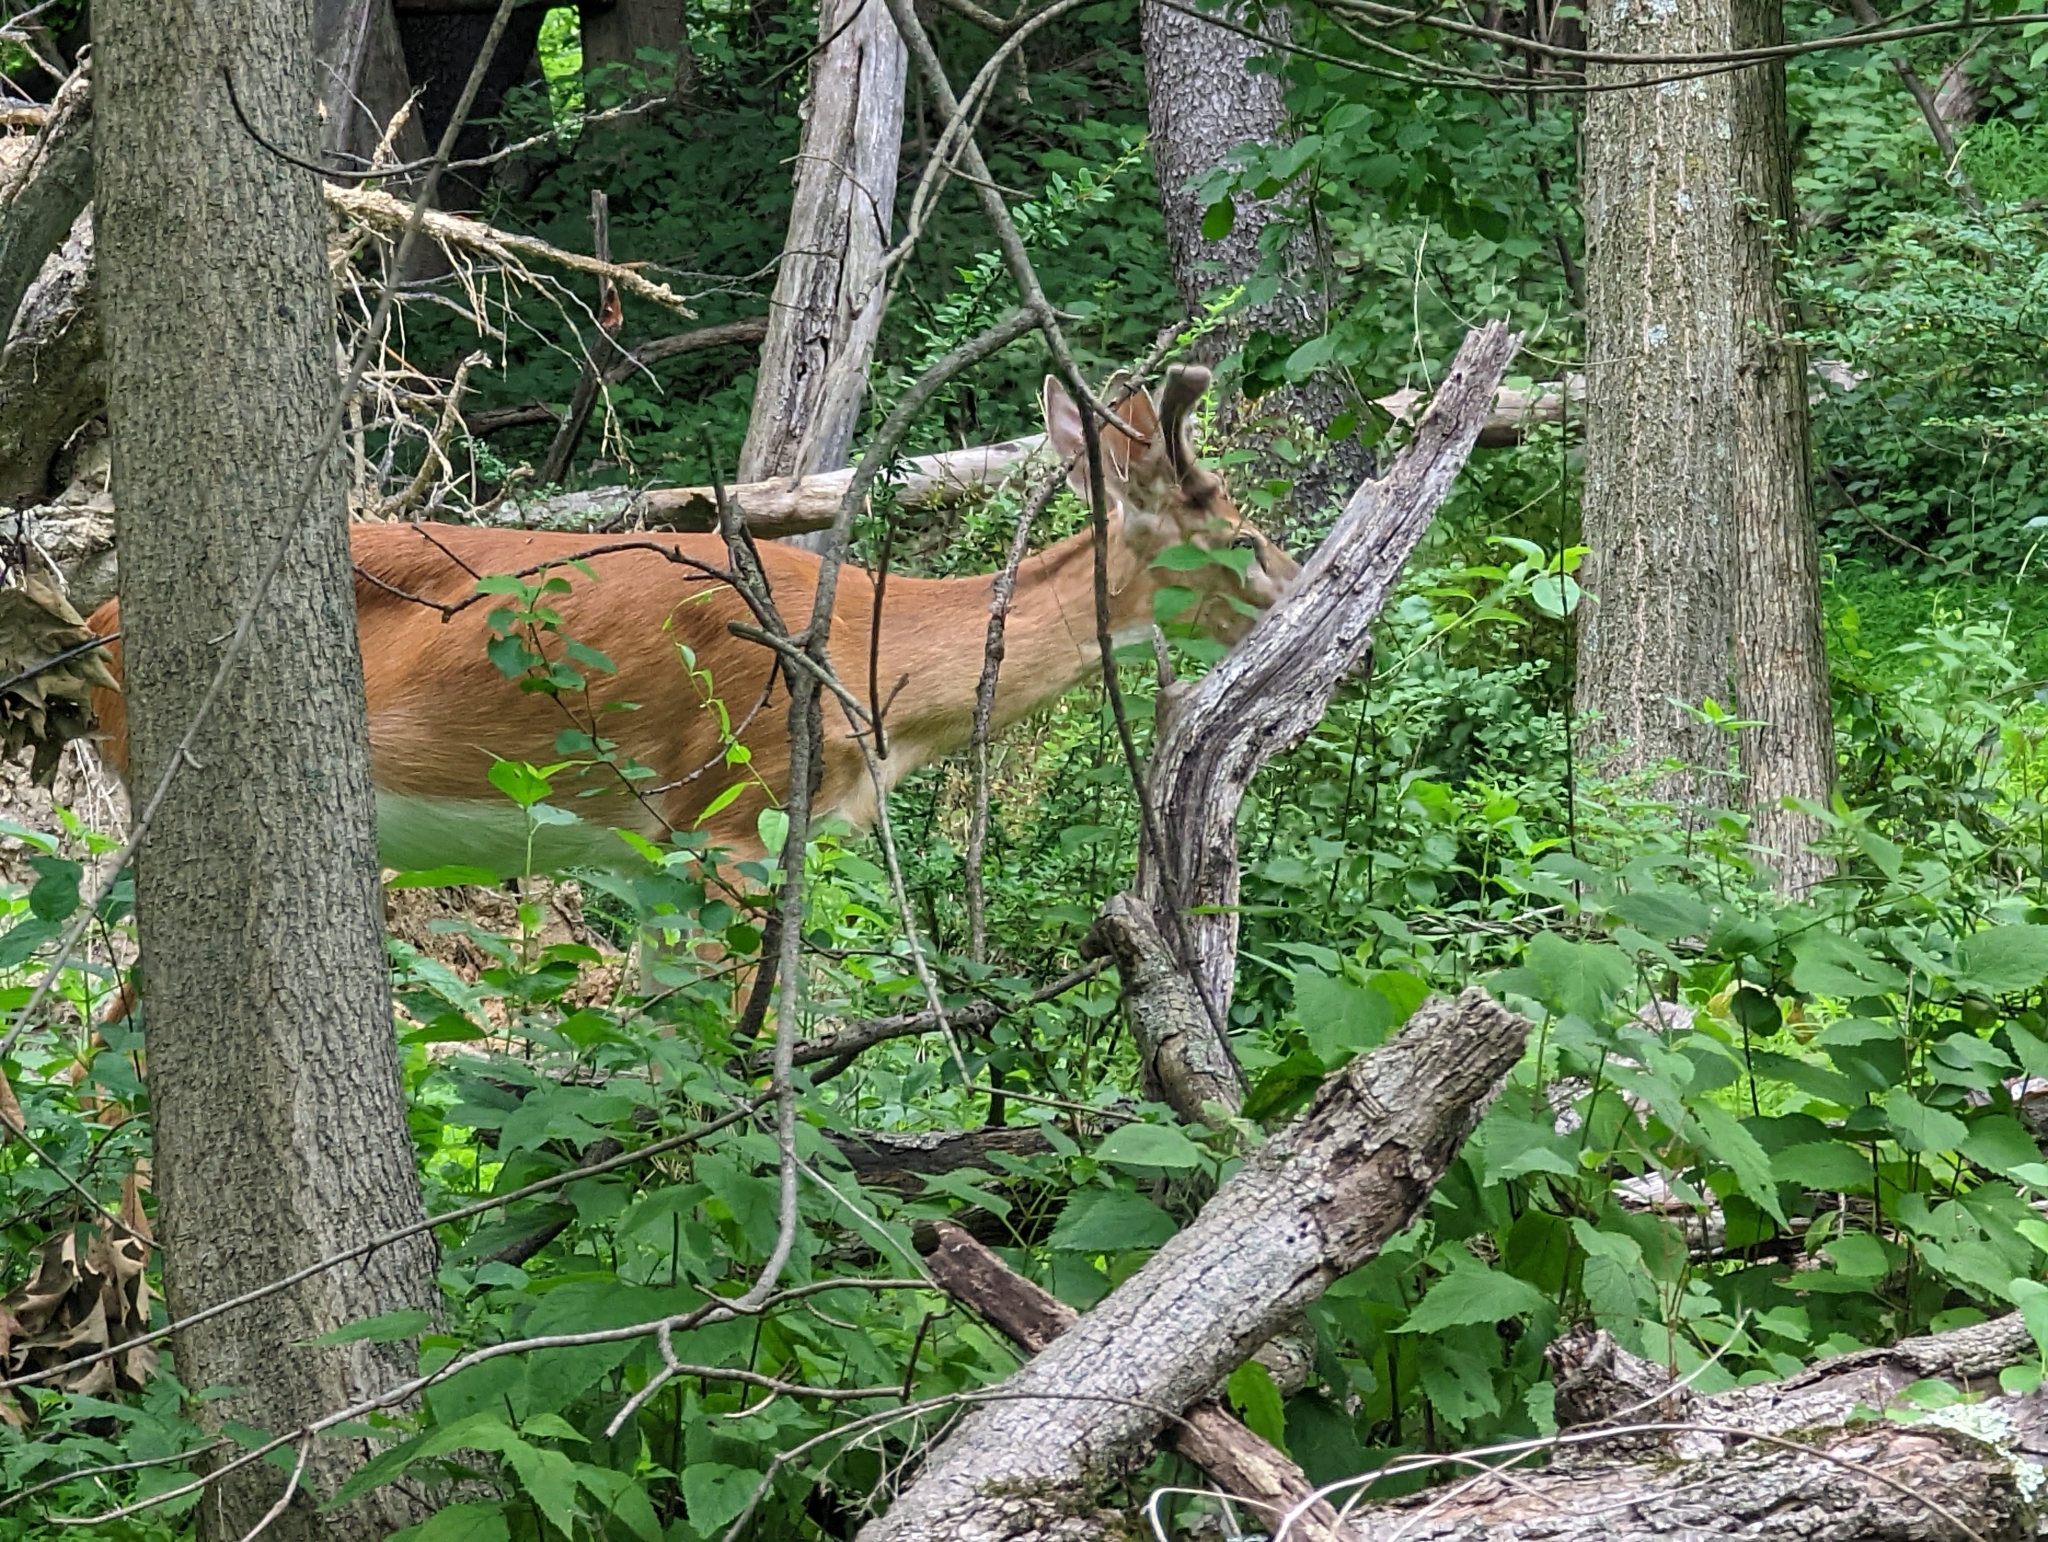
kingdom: Animalia
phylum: Chordata
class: Mammalia
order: Artiodactyla
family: Cervidae
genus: Odocoileus
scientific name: Odocoileus virginianus
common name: White-tailed deer
